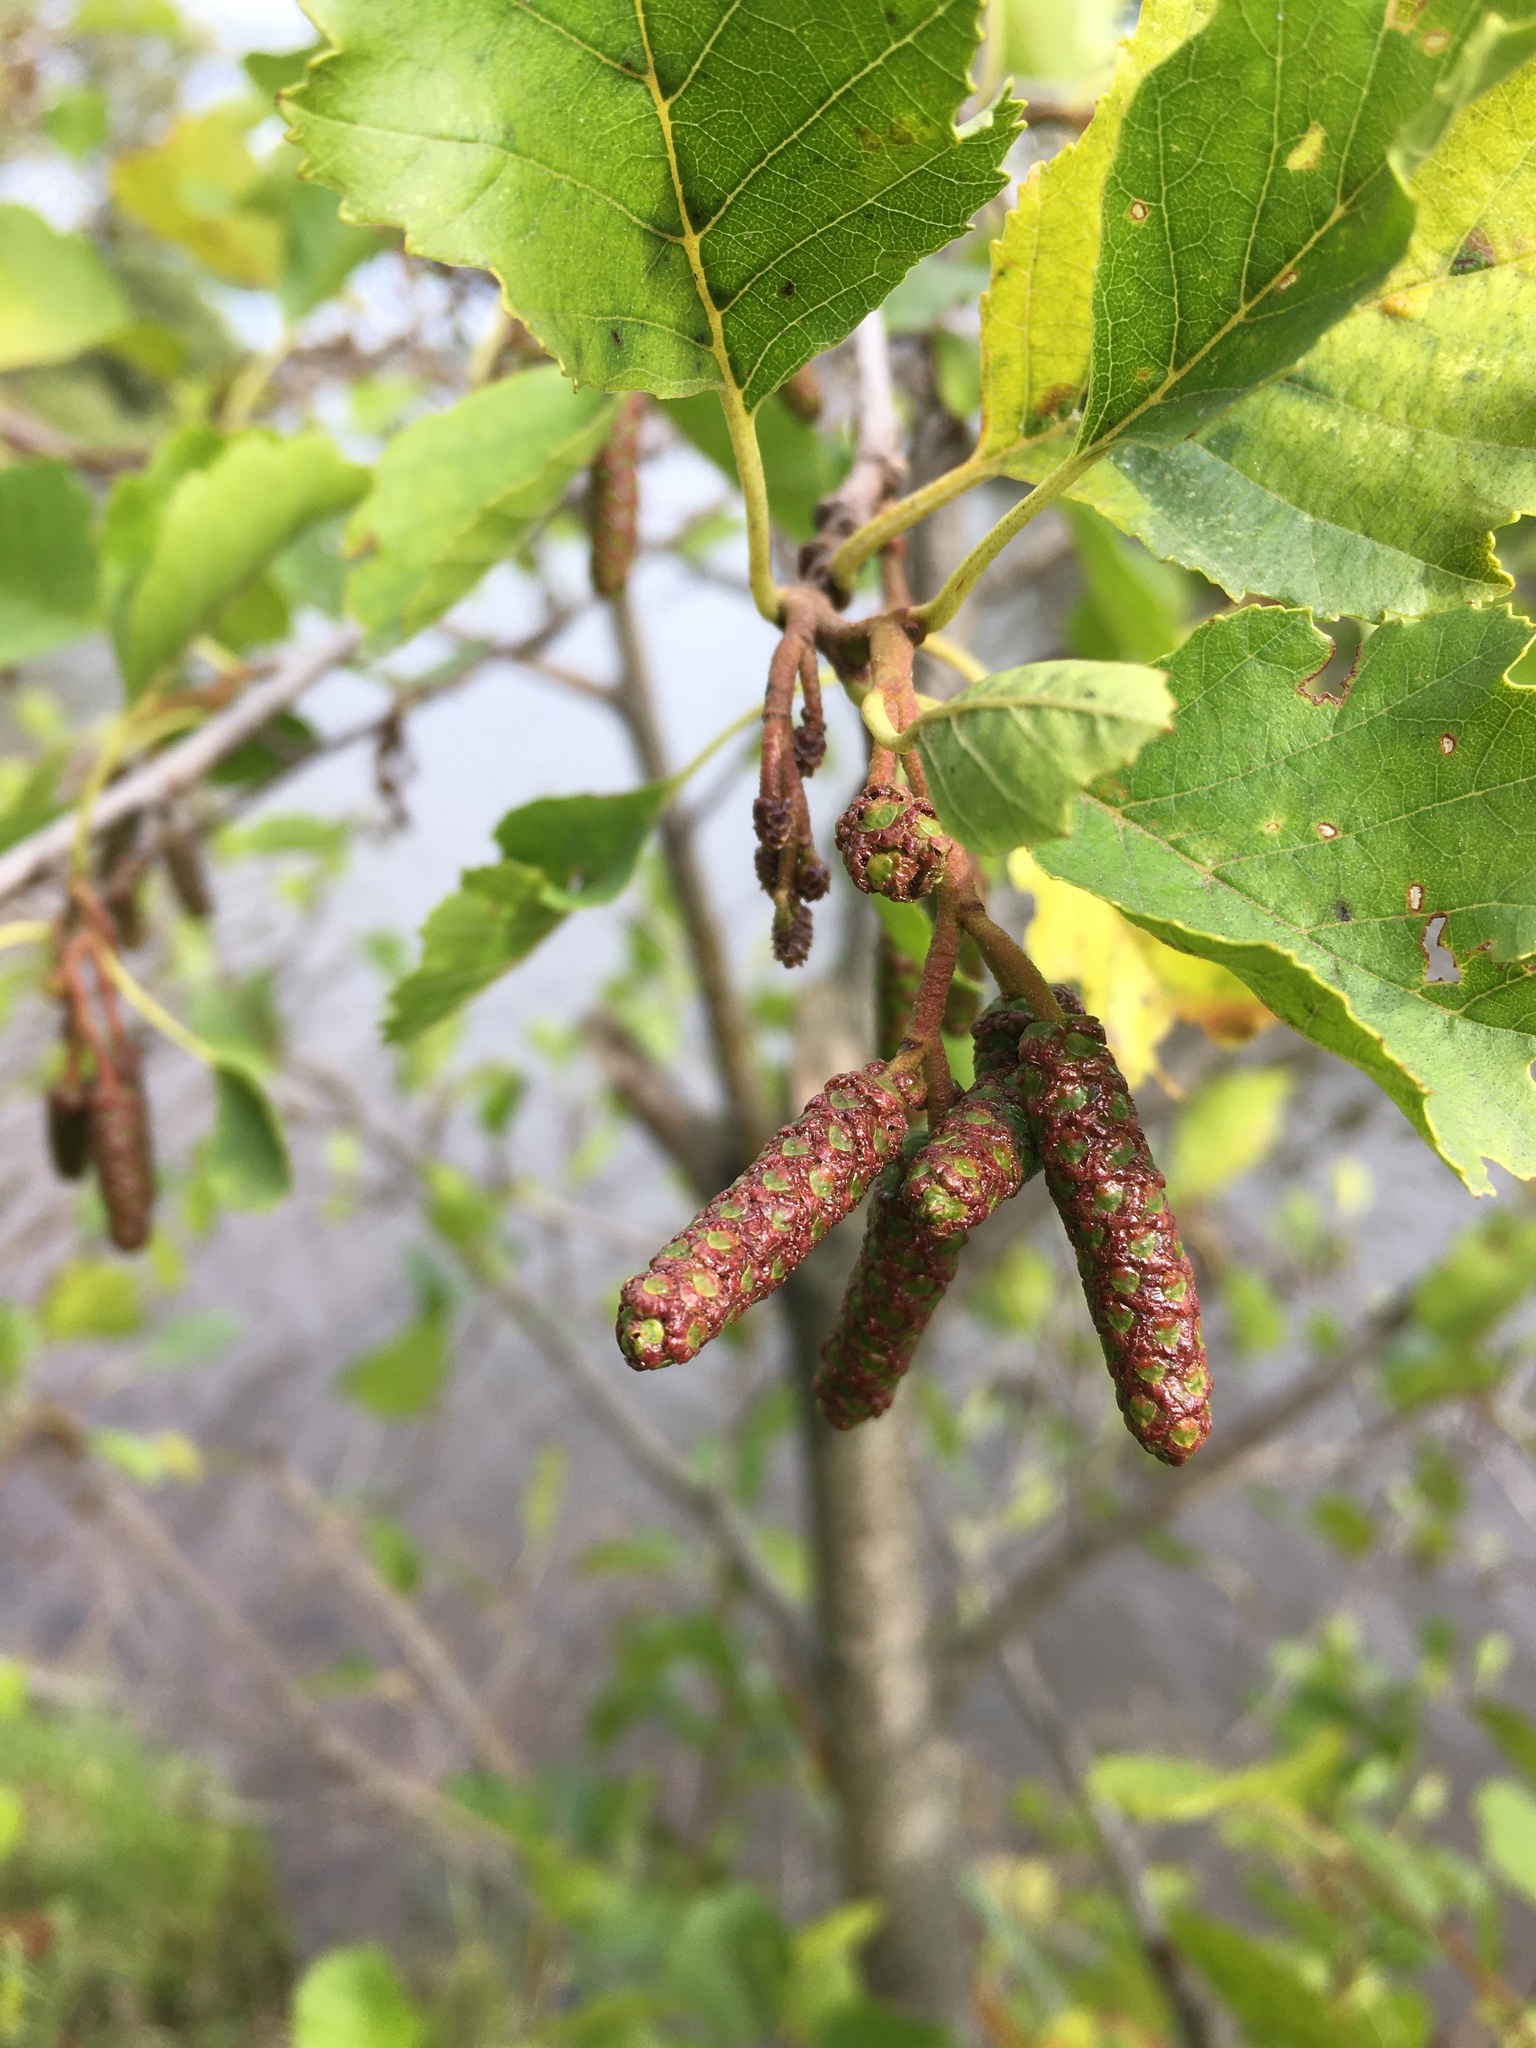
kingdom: Plantae
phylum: Tracheophyta
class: Magnoliopsida
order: Fagales
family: Betulaceae
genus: Alnus
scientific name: Alnus glutinosa
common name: Black alder
